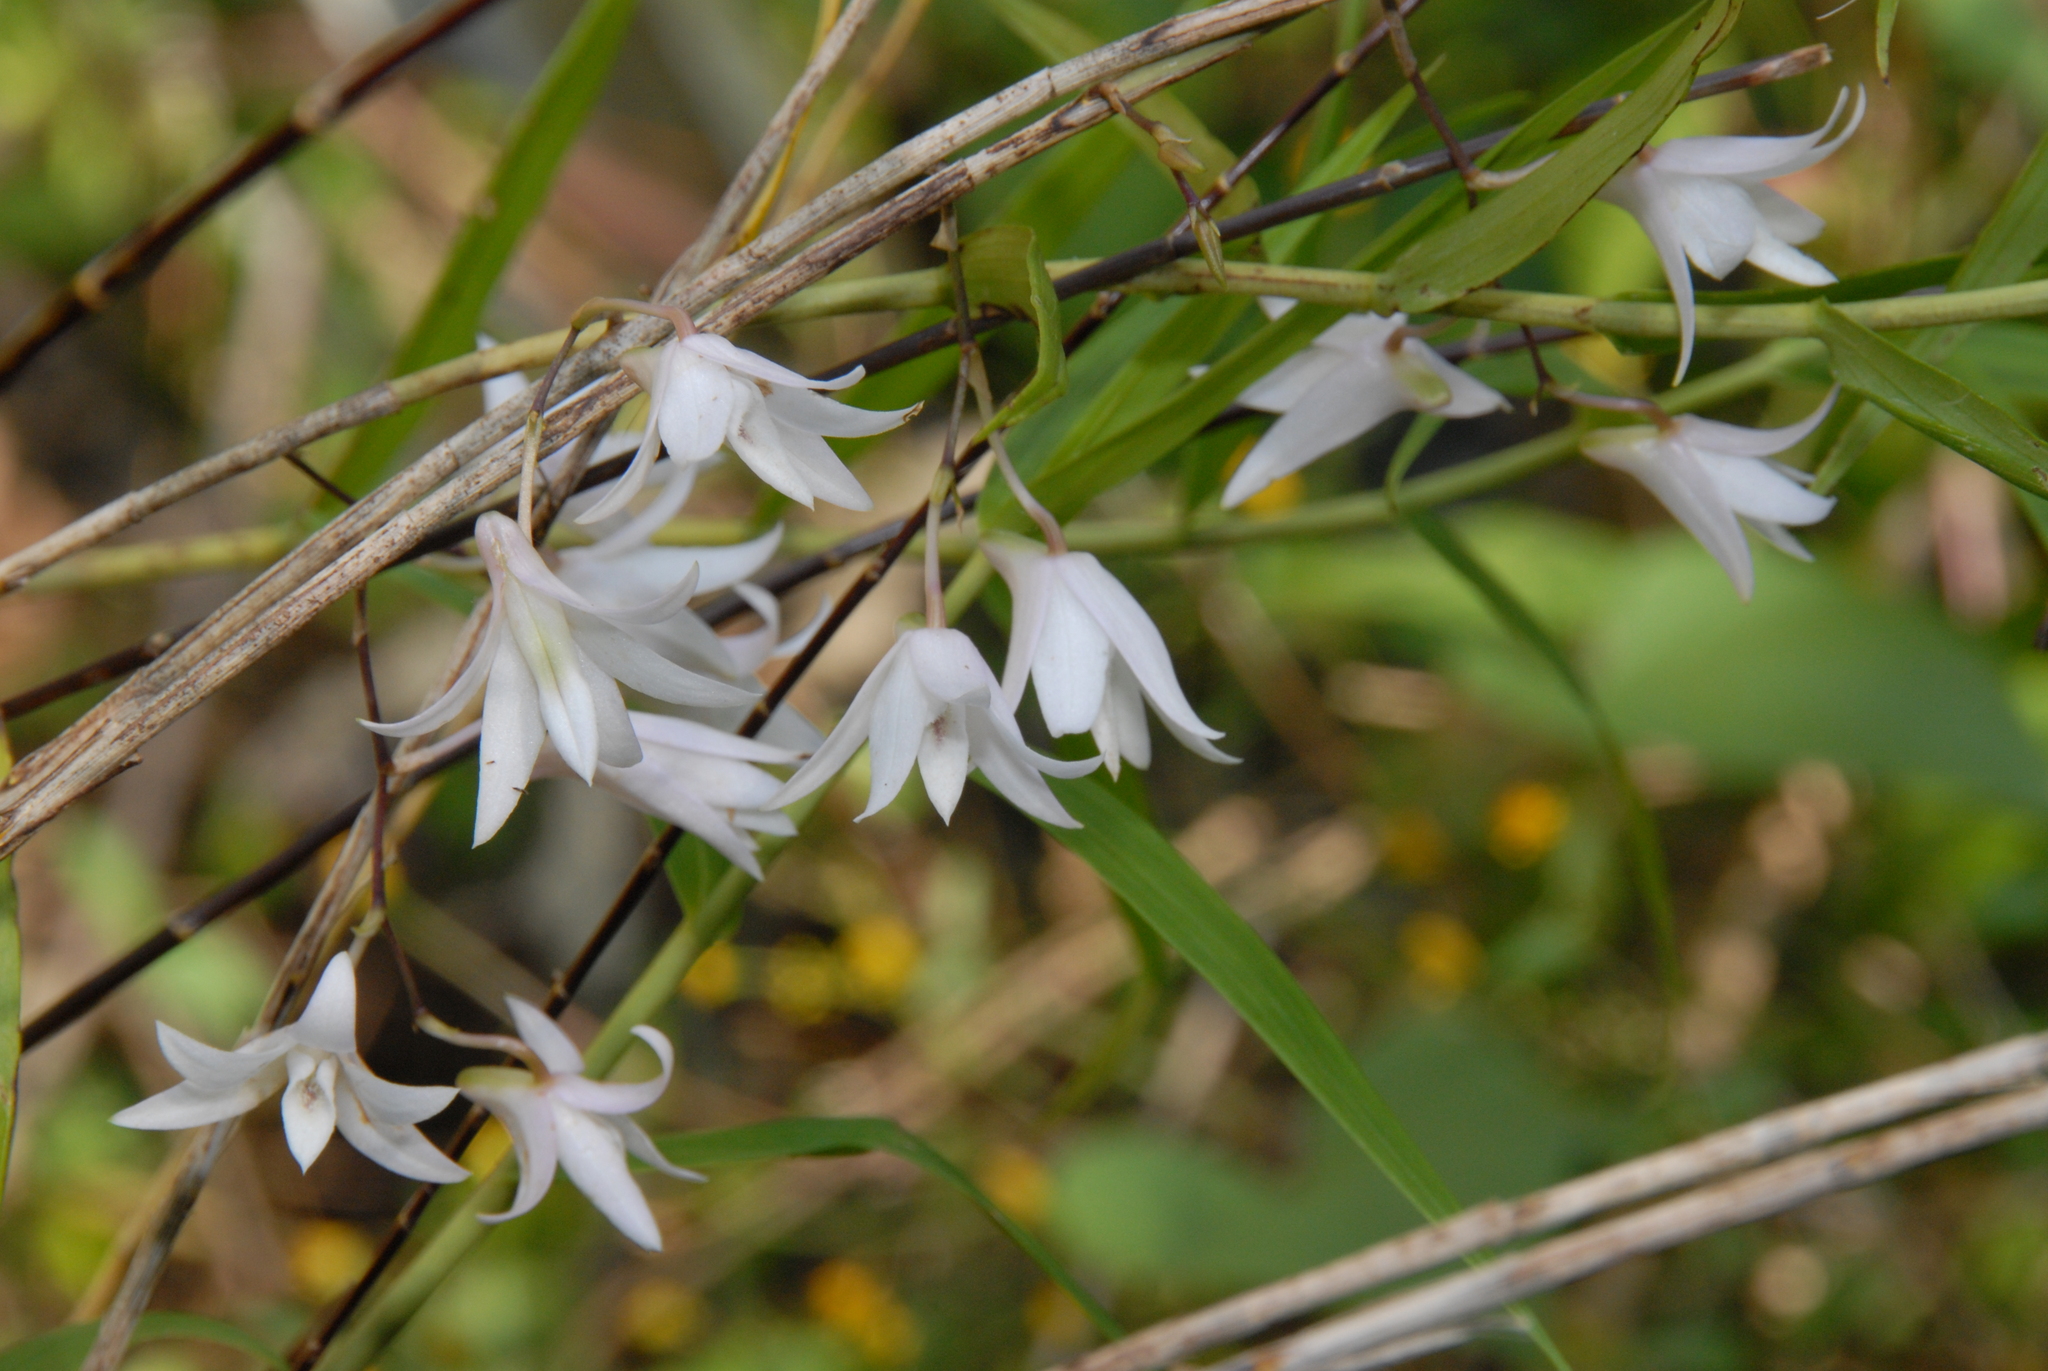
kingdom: Plantae
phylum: Tracheophyta
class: Liliopsida
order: Asparagales
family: Orchidaceae
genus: Dendrobium
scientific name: Dendrobium leptocladum
